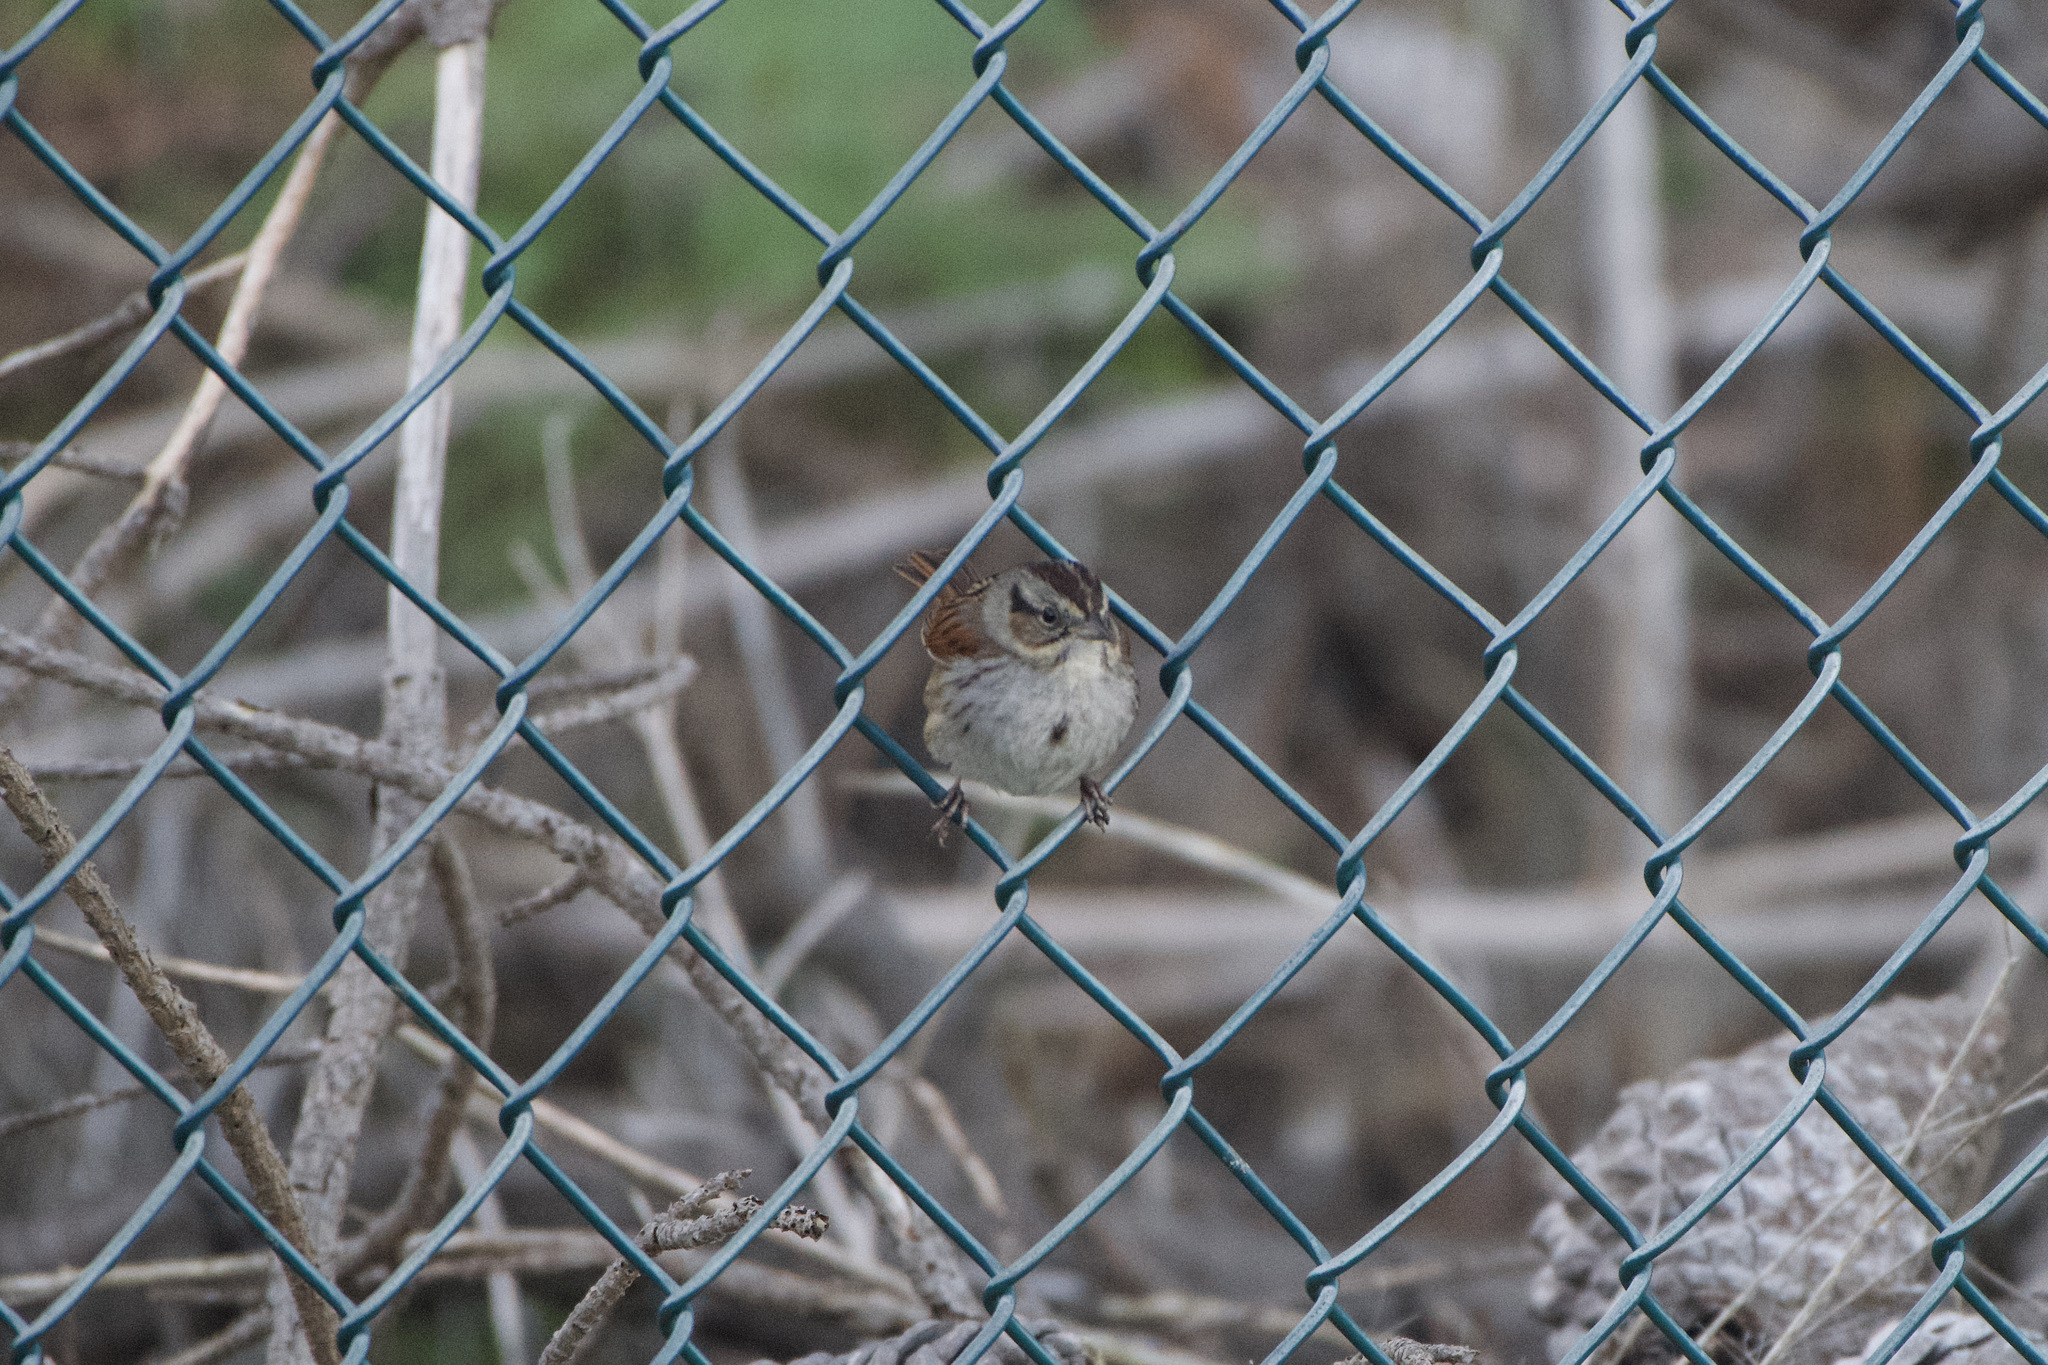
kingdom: Animalia
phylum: Chordata
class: Aves
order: Passeriformes
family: Passerellidae
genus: Melospiza
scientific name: Melospiza georgiana
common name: Swamp sparrow
